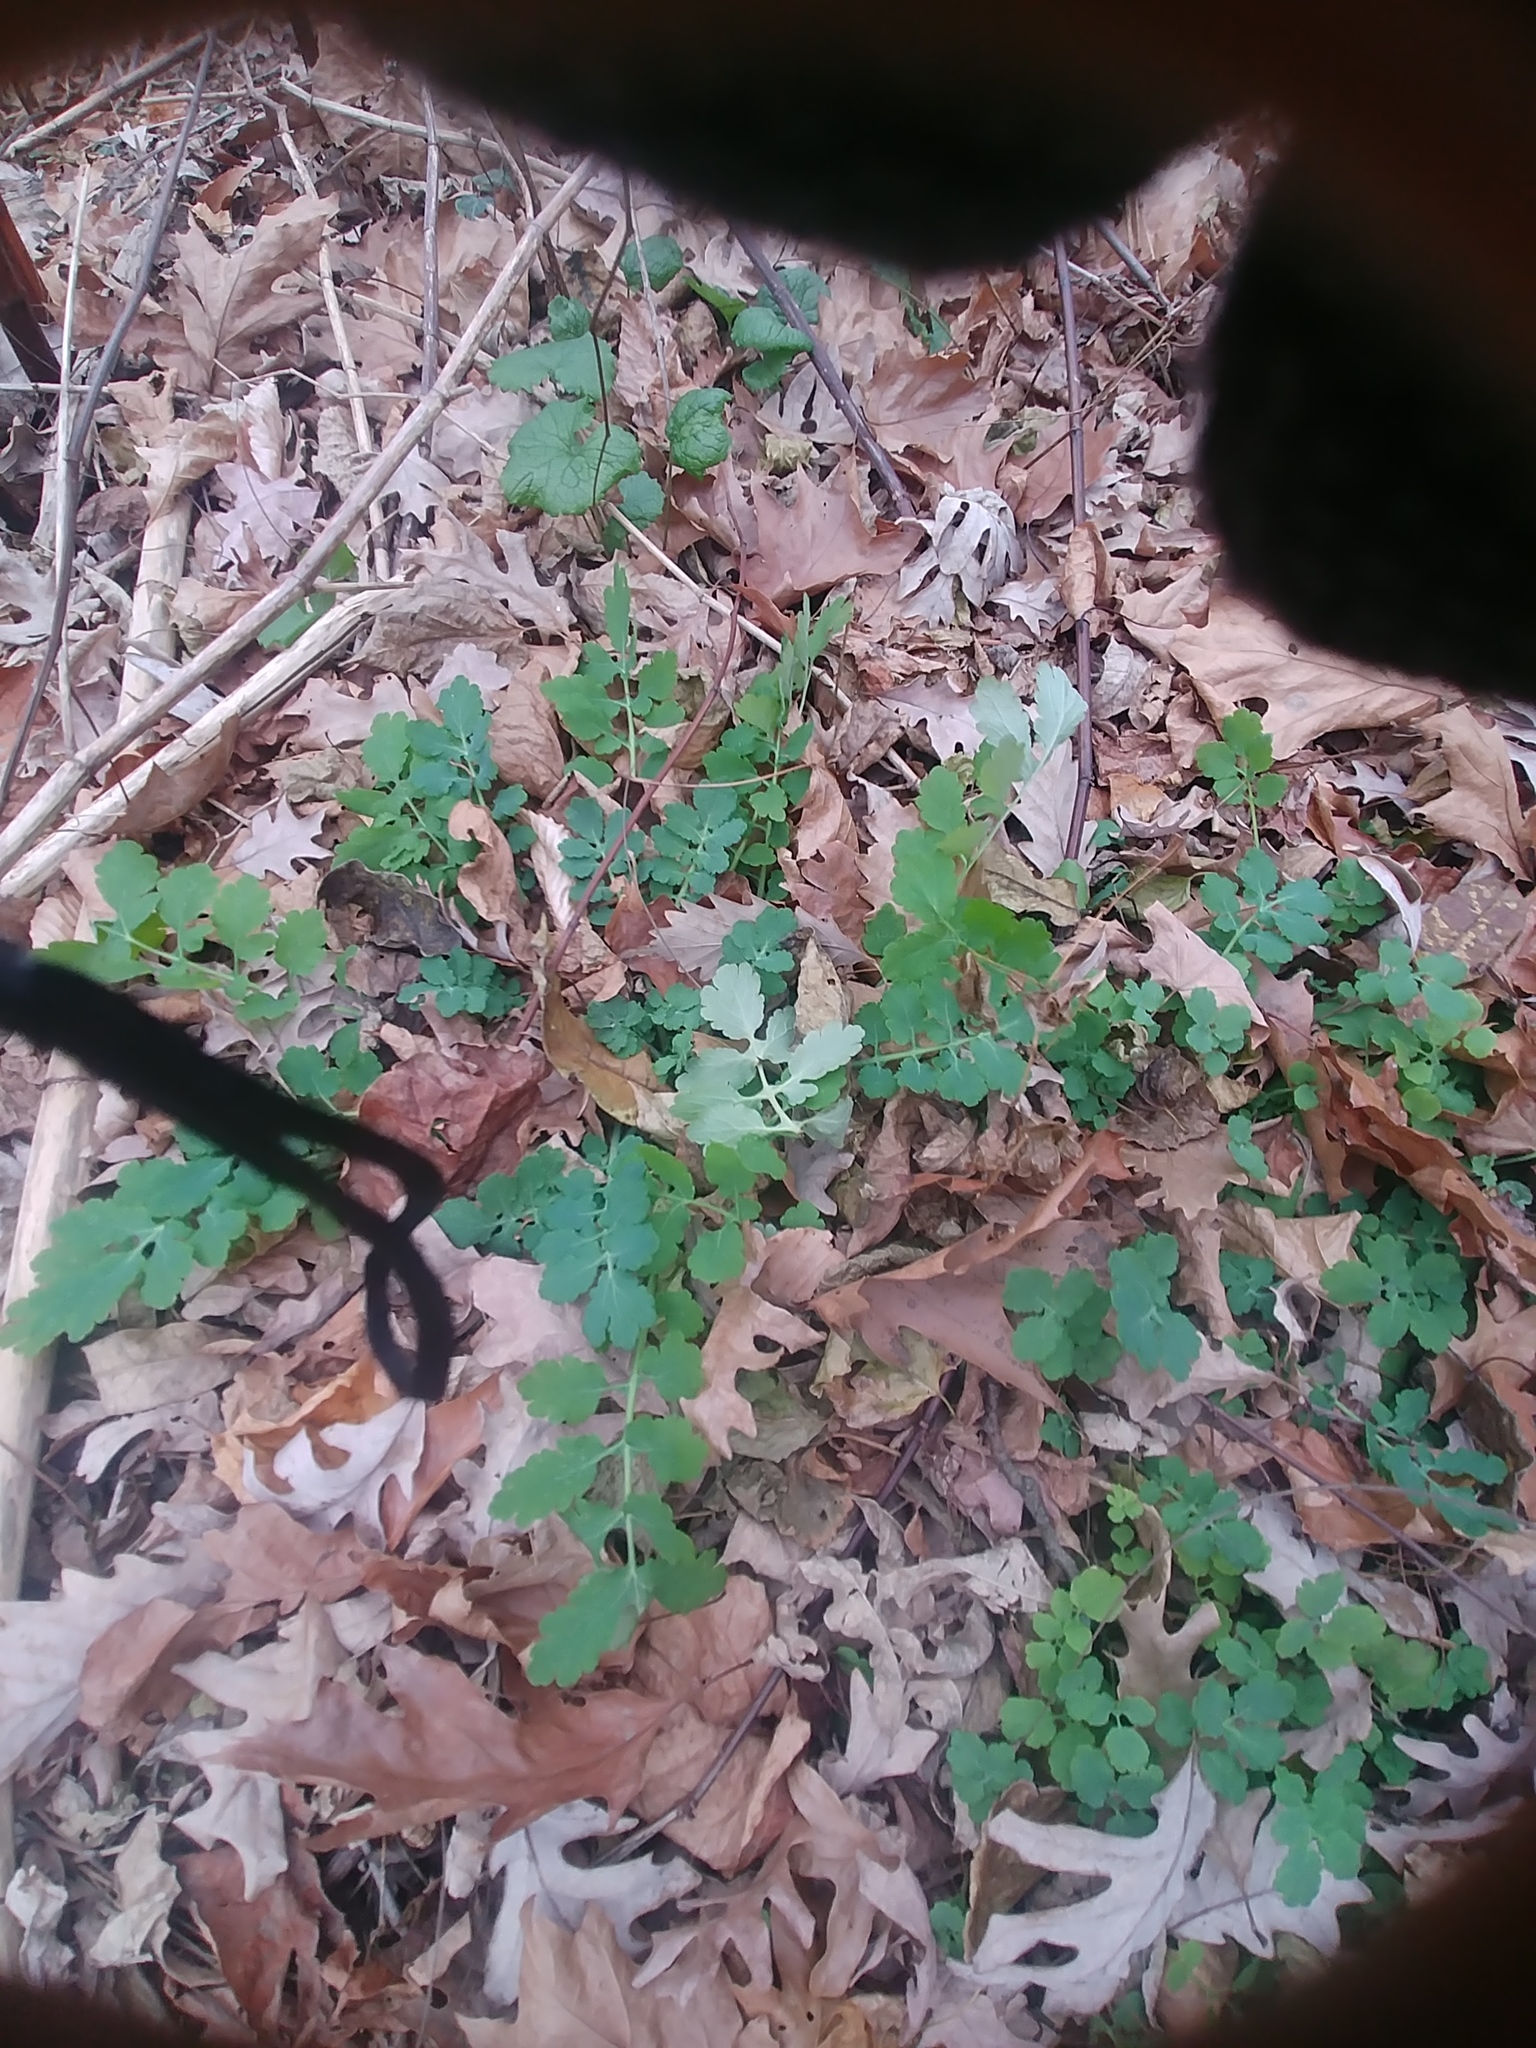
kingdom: Plantae
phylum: Tracheophyta
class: Magnoliopsida
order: Ranunculales
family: Papaveraceae
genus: Chelidonium
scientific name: Chelidonium majus
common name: Greater celandine
